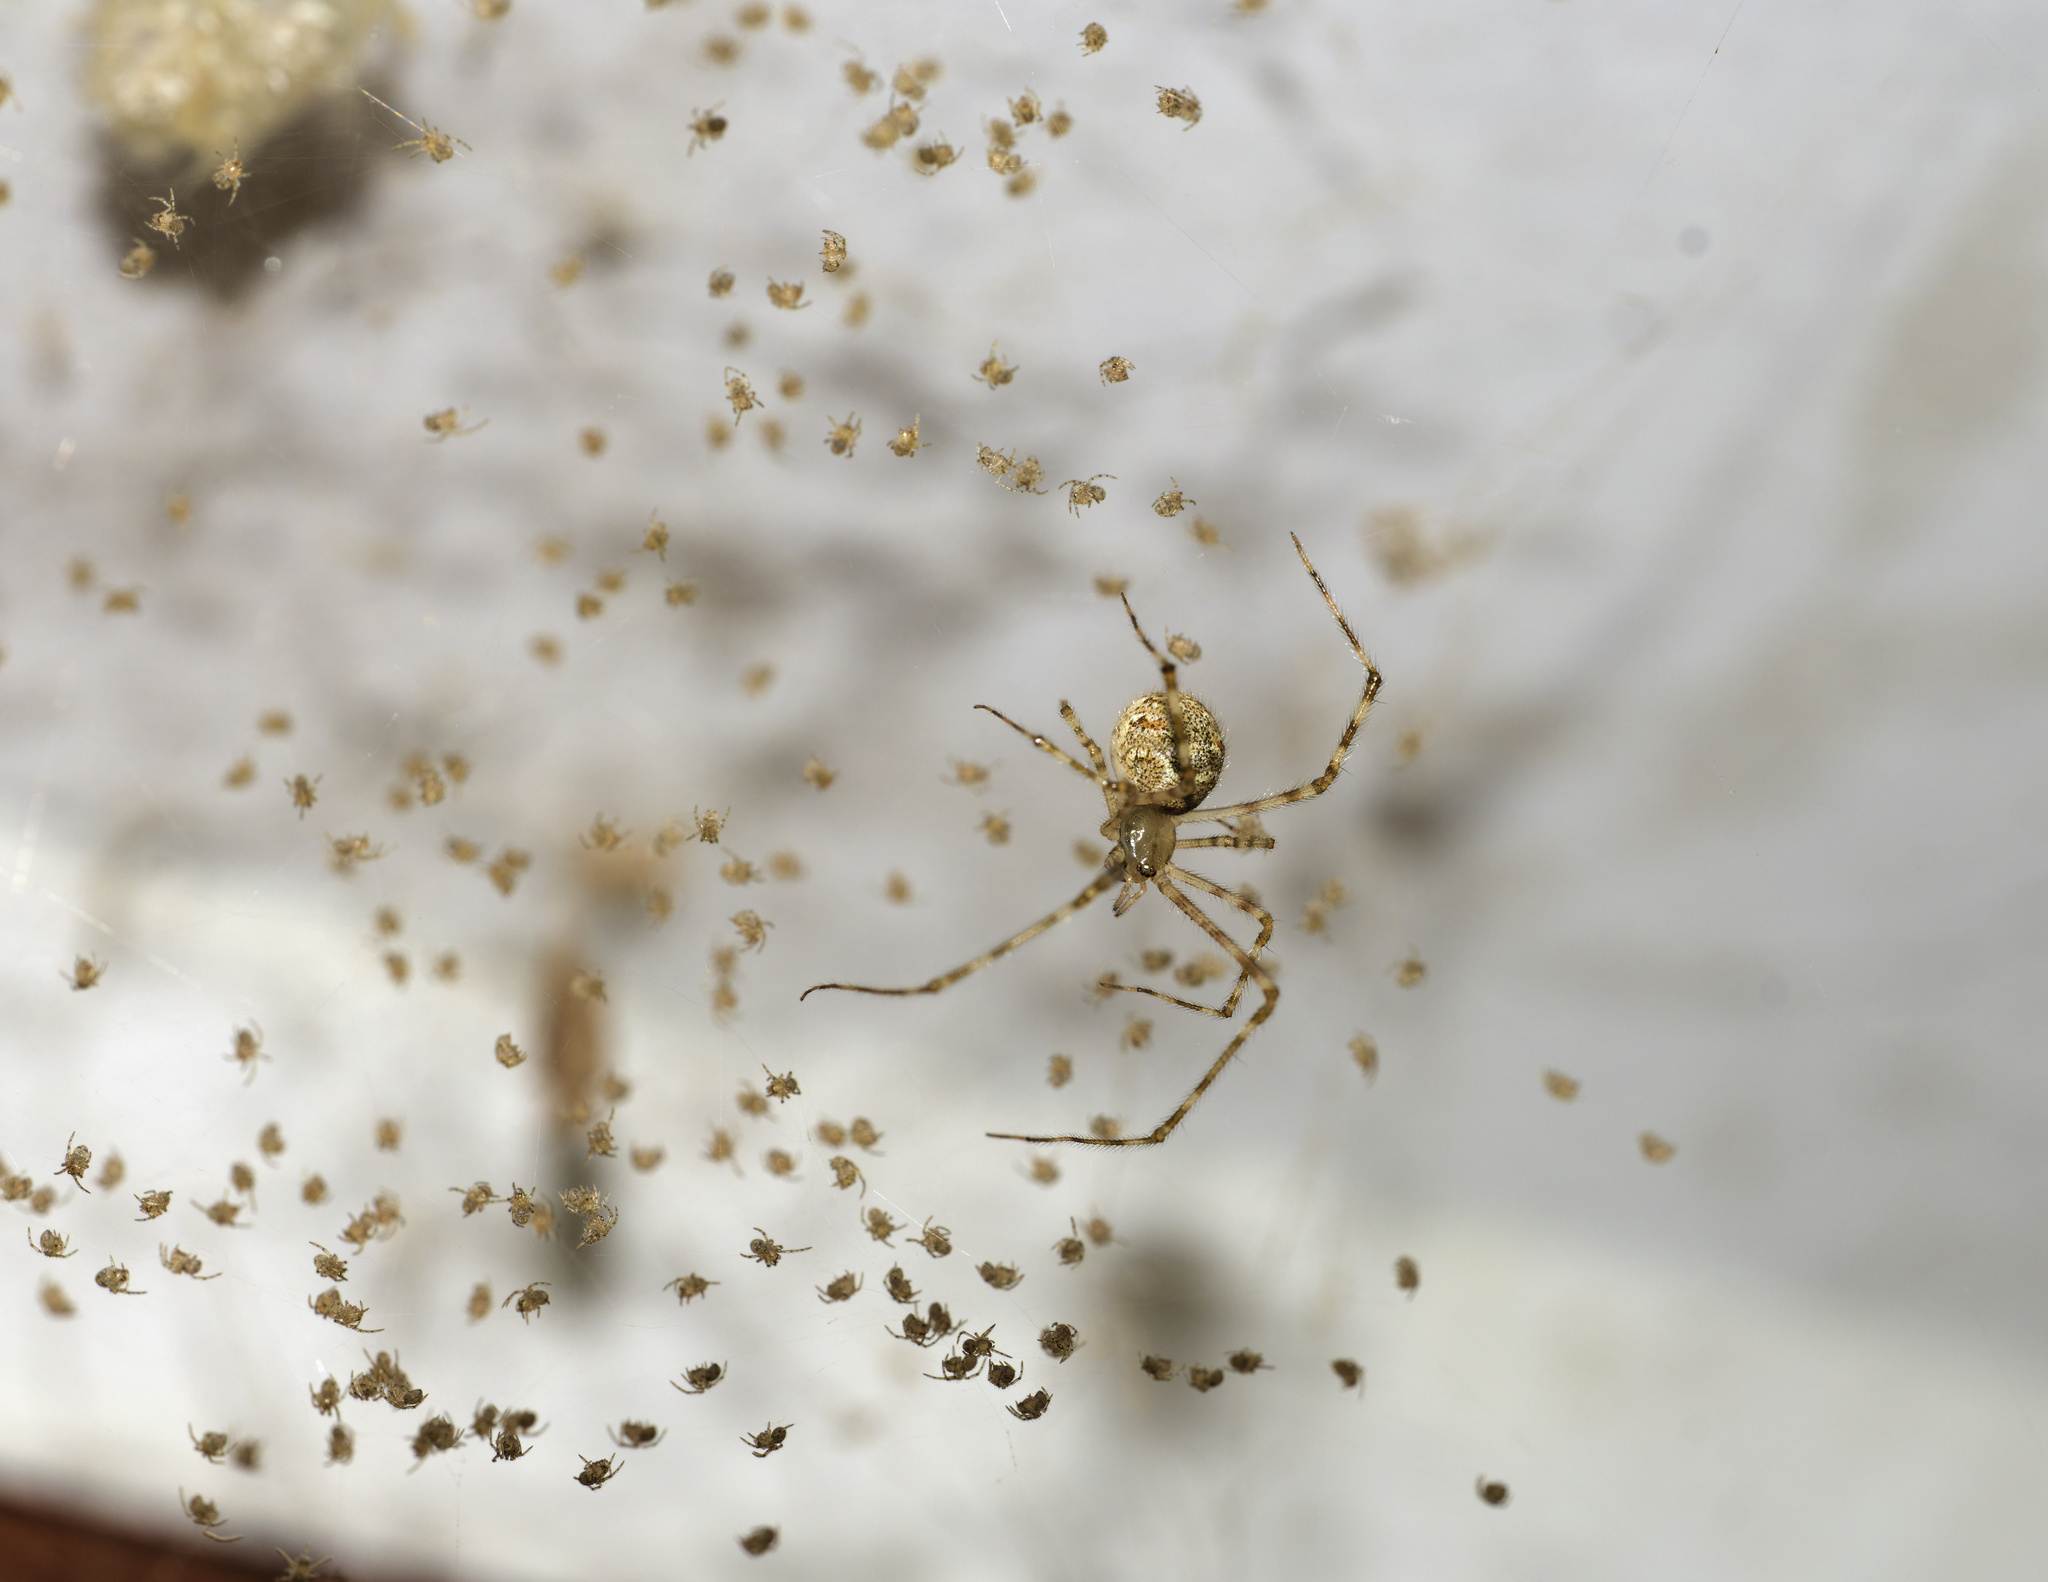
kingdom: Animalia
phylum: Arthropoda
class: Arachnida
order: Araneae
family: Theridiidae
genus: Cryptachaea
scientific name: Cryptachaea gigantipes
